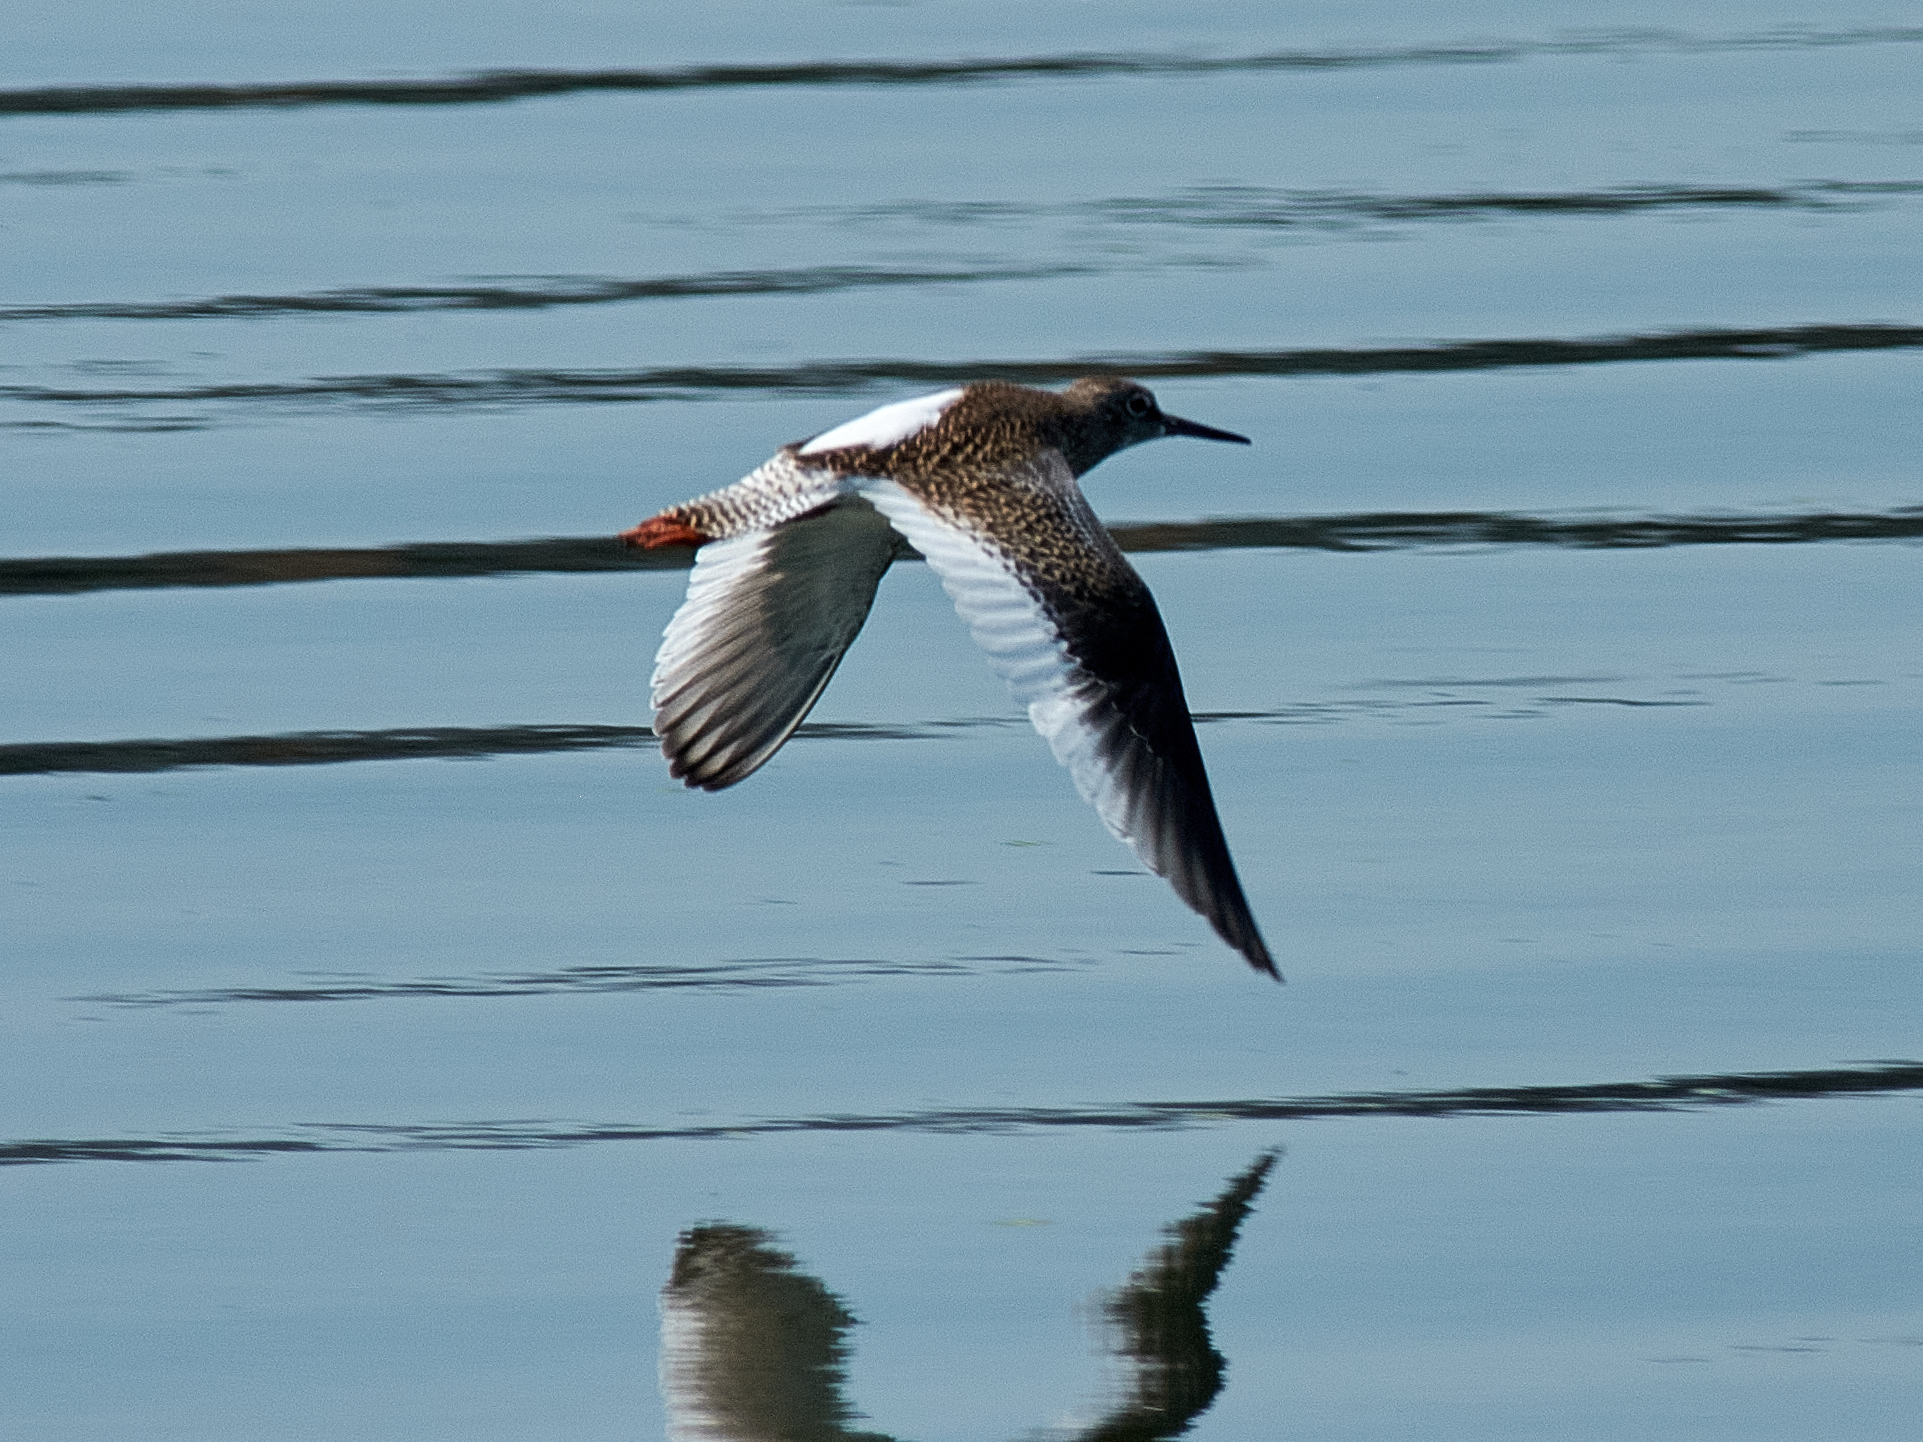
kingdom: Animalia
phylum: Chordata
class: Aves
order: Charadriiformes
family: Scolopacidae
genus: Tringa
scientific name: Tringa totanus
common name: Common redshank
